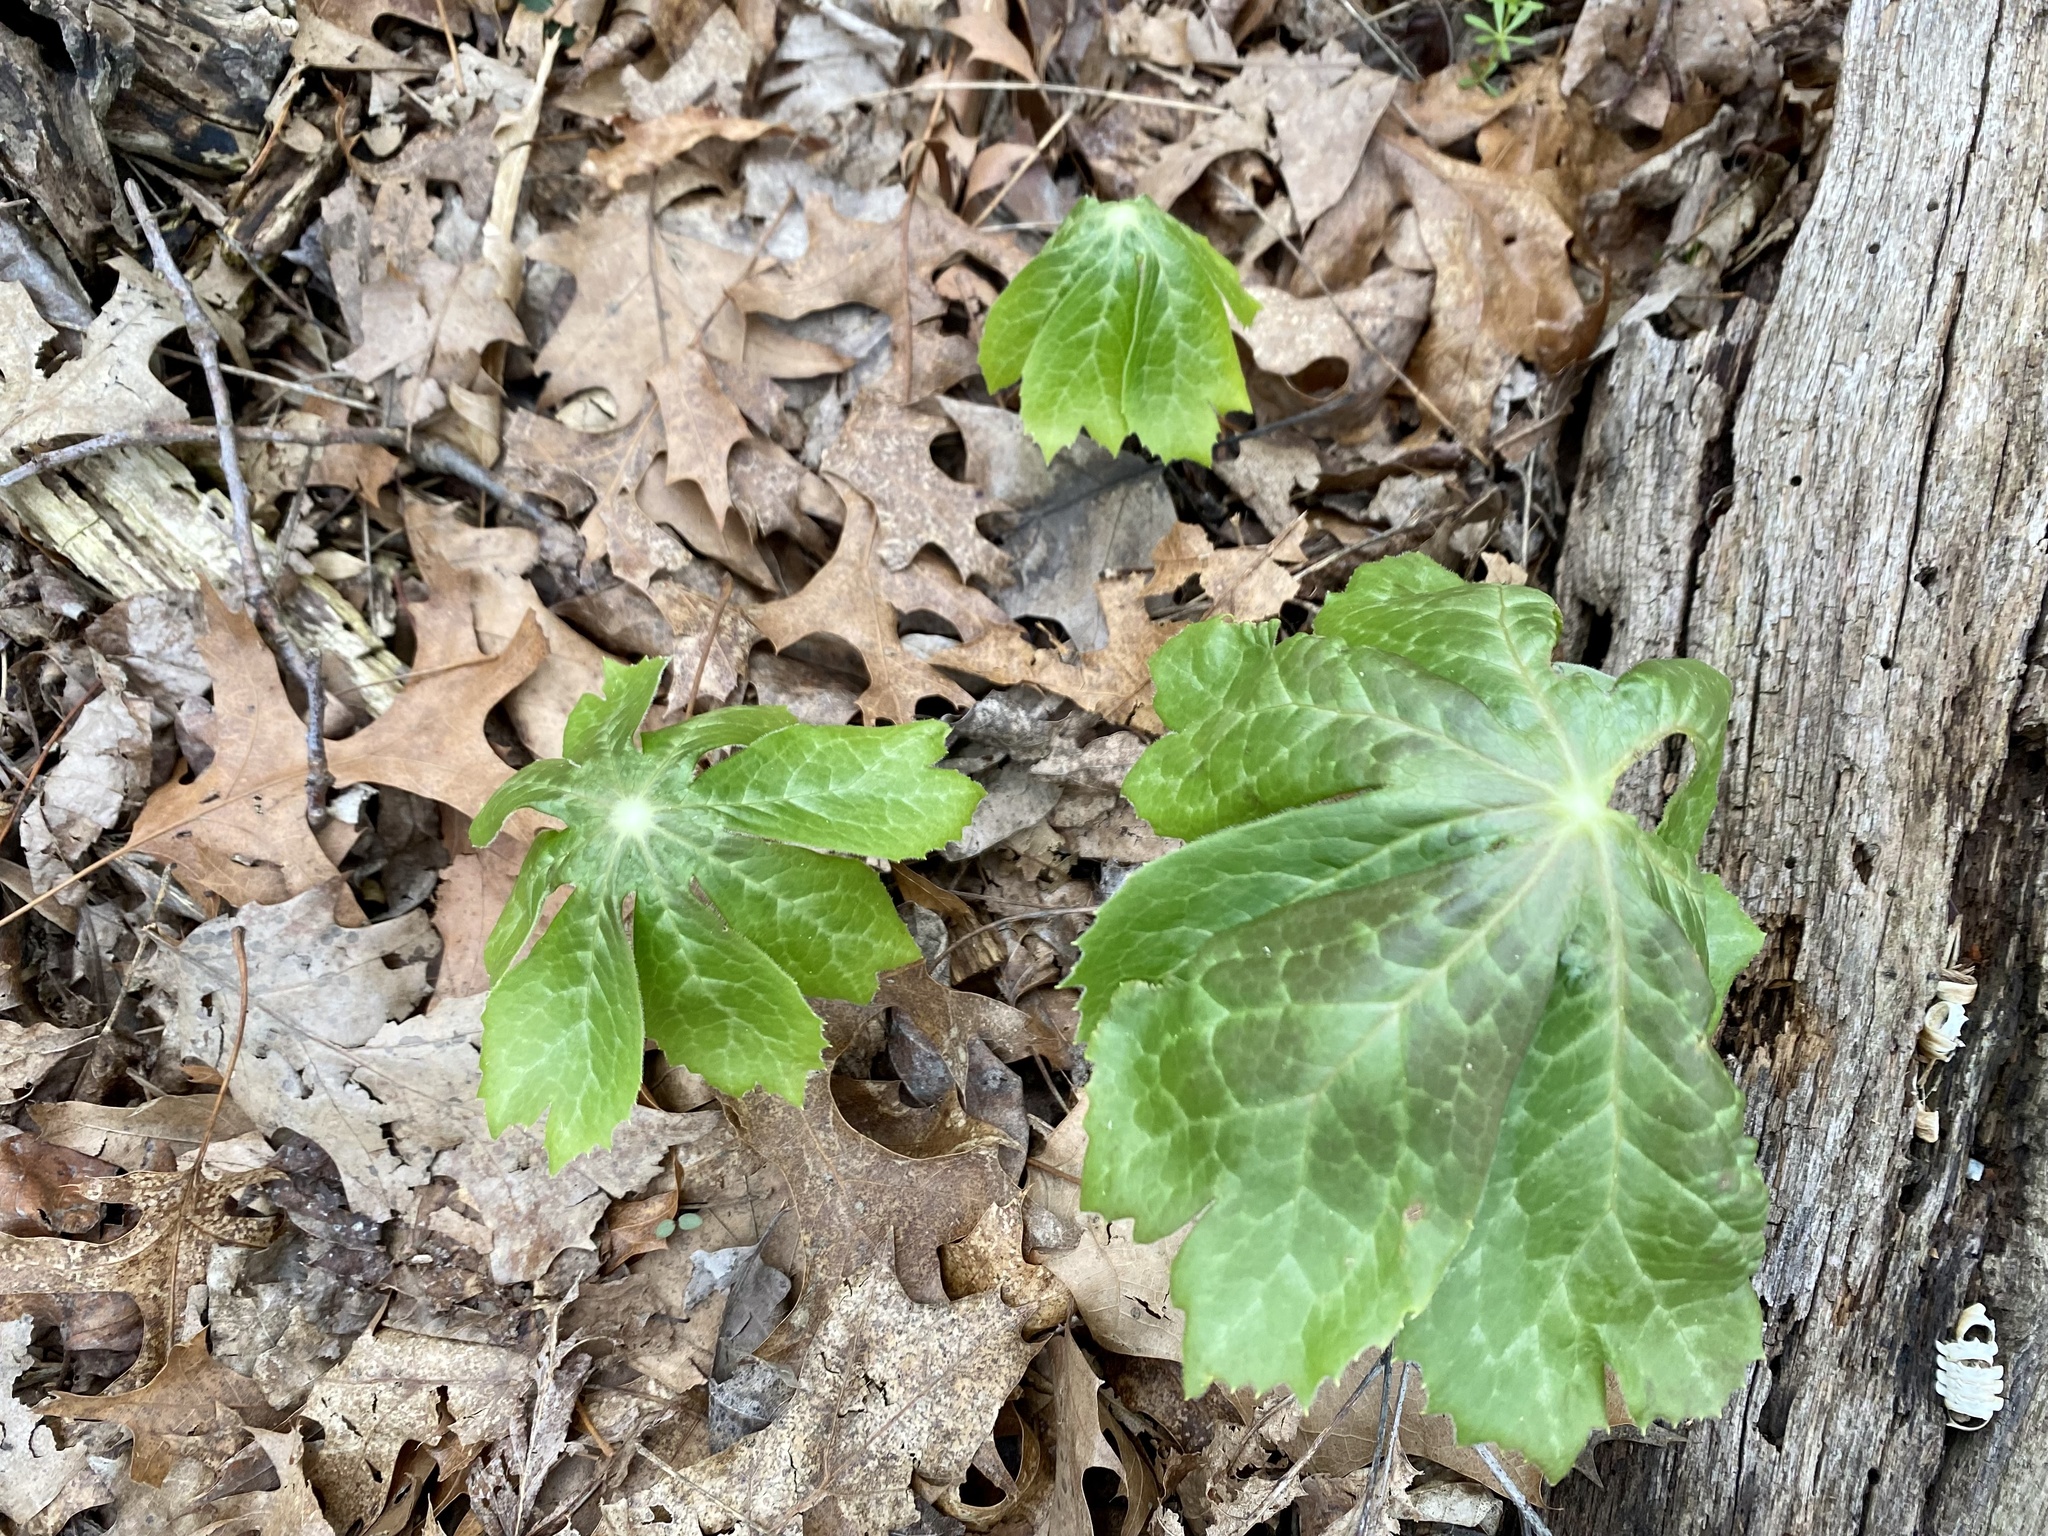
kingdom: Plantae
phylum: Tracheophyta
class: Magnoliopsida
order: Ranunculales
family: Berberidaceae
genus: Podophyllum
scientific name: Podophyllum peltatum
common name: Wild mandrake
